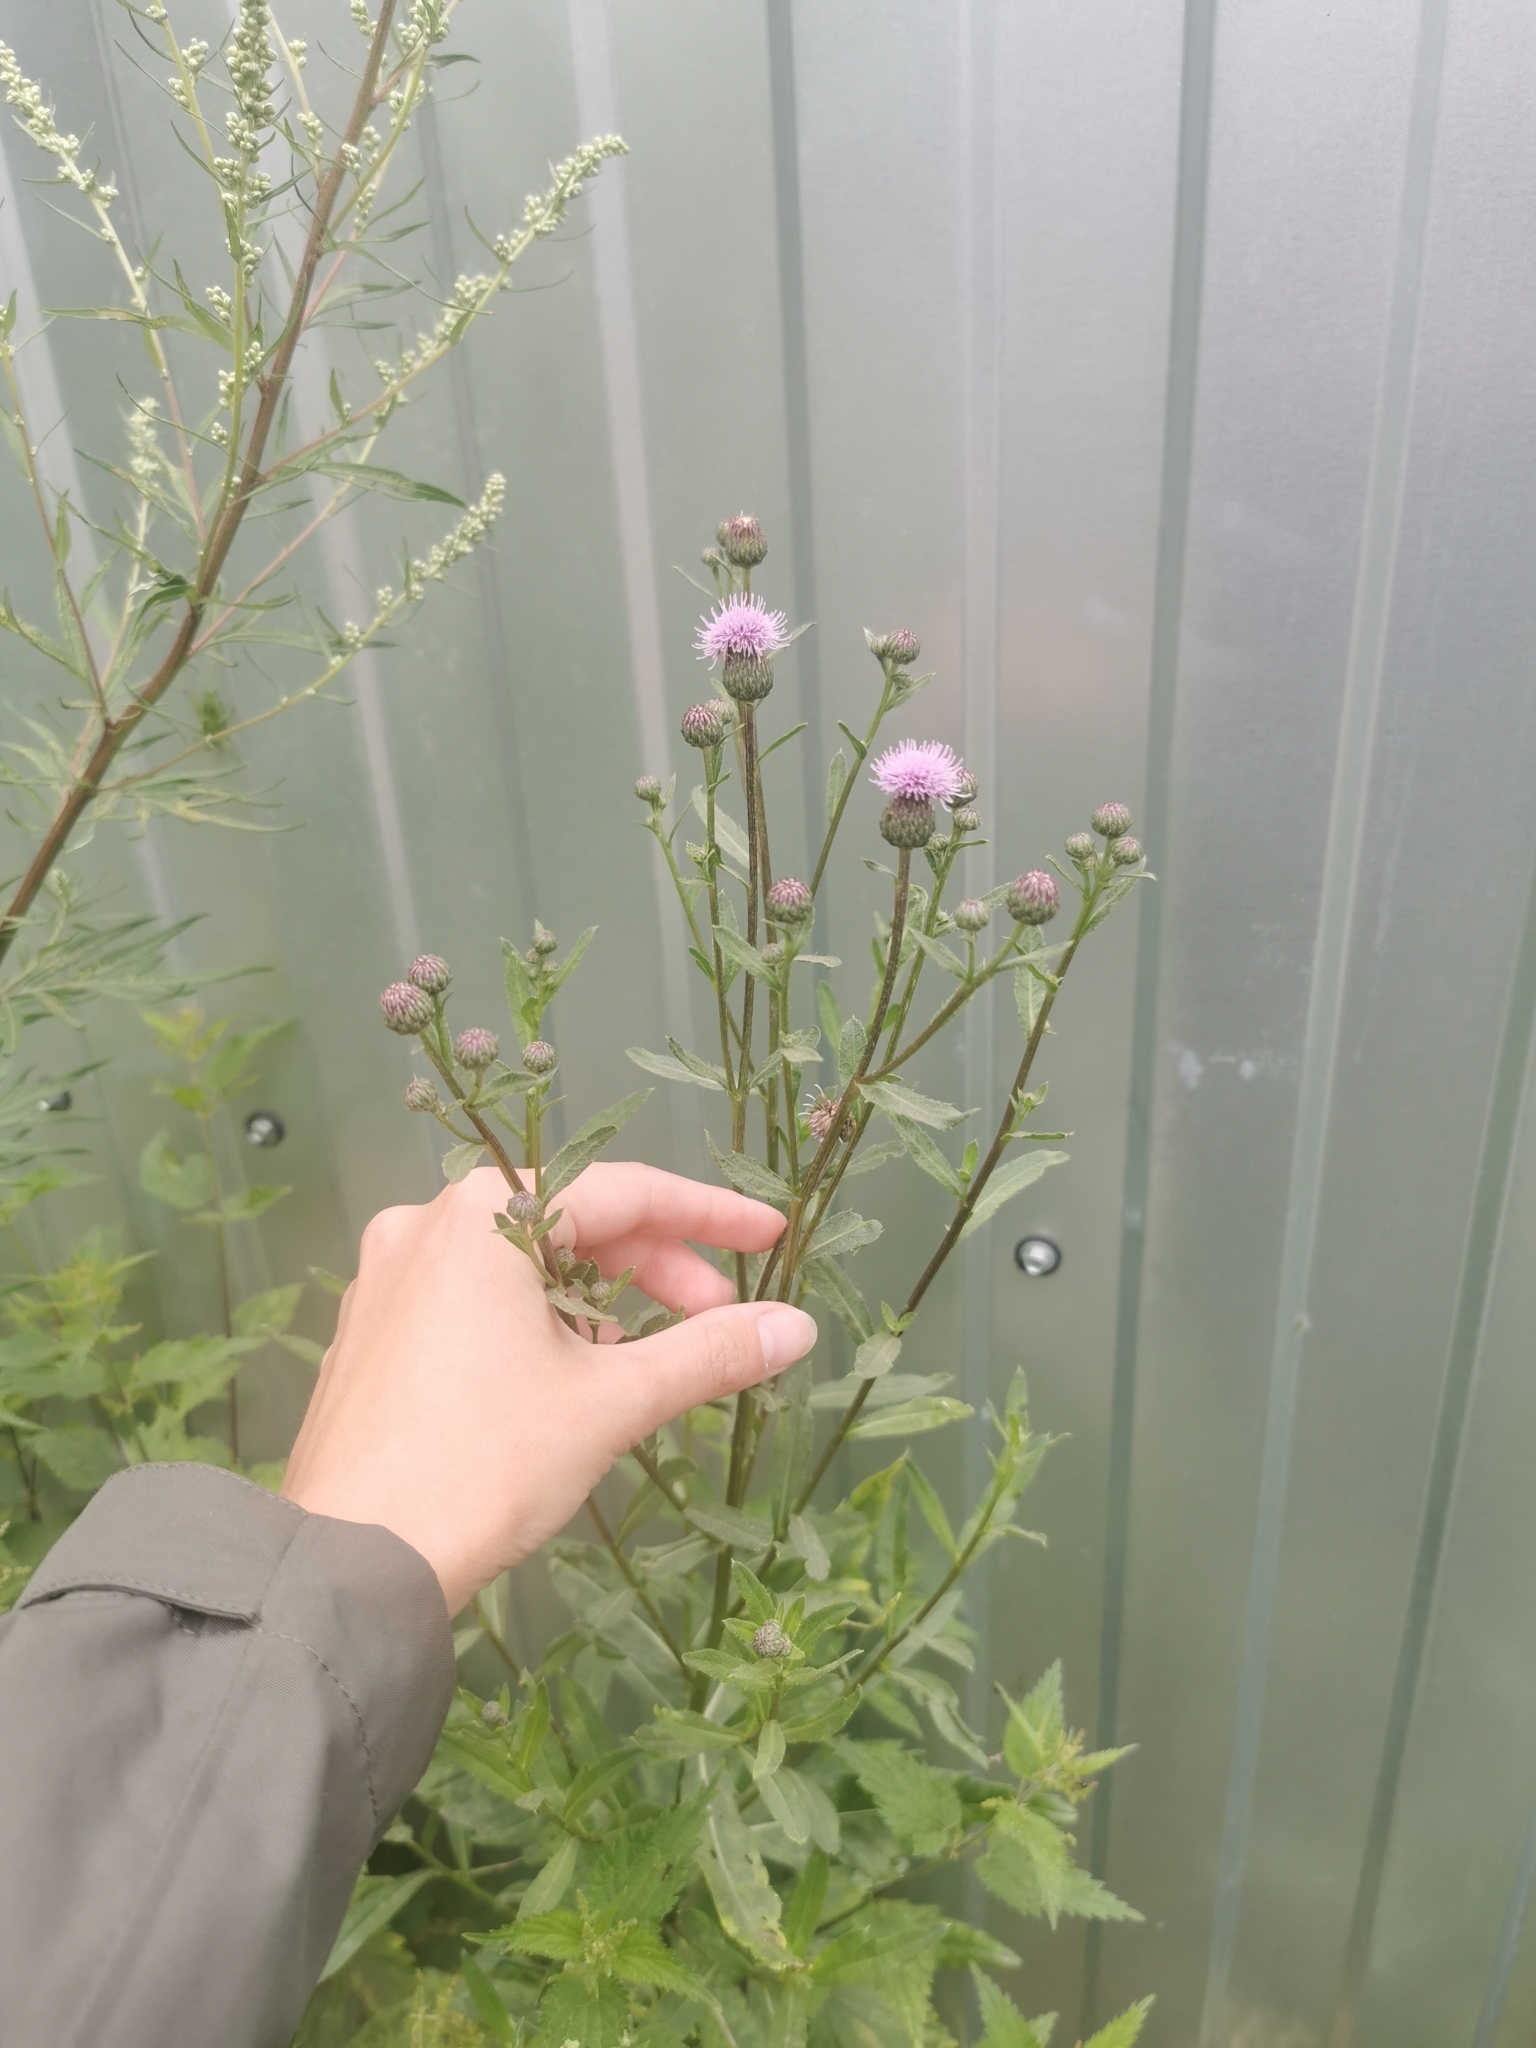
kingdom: Plantae
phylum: Tracheophyta
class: Magnoliopsida
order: Asterales
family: Asteraceae
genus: Cirsium
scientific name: Cirsium arvense
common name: Creeping thistle
